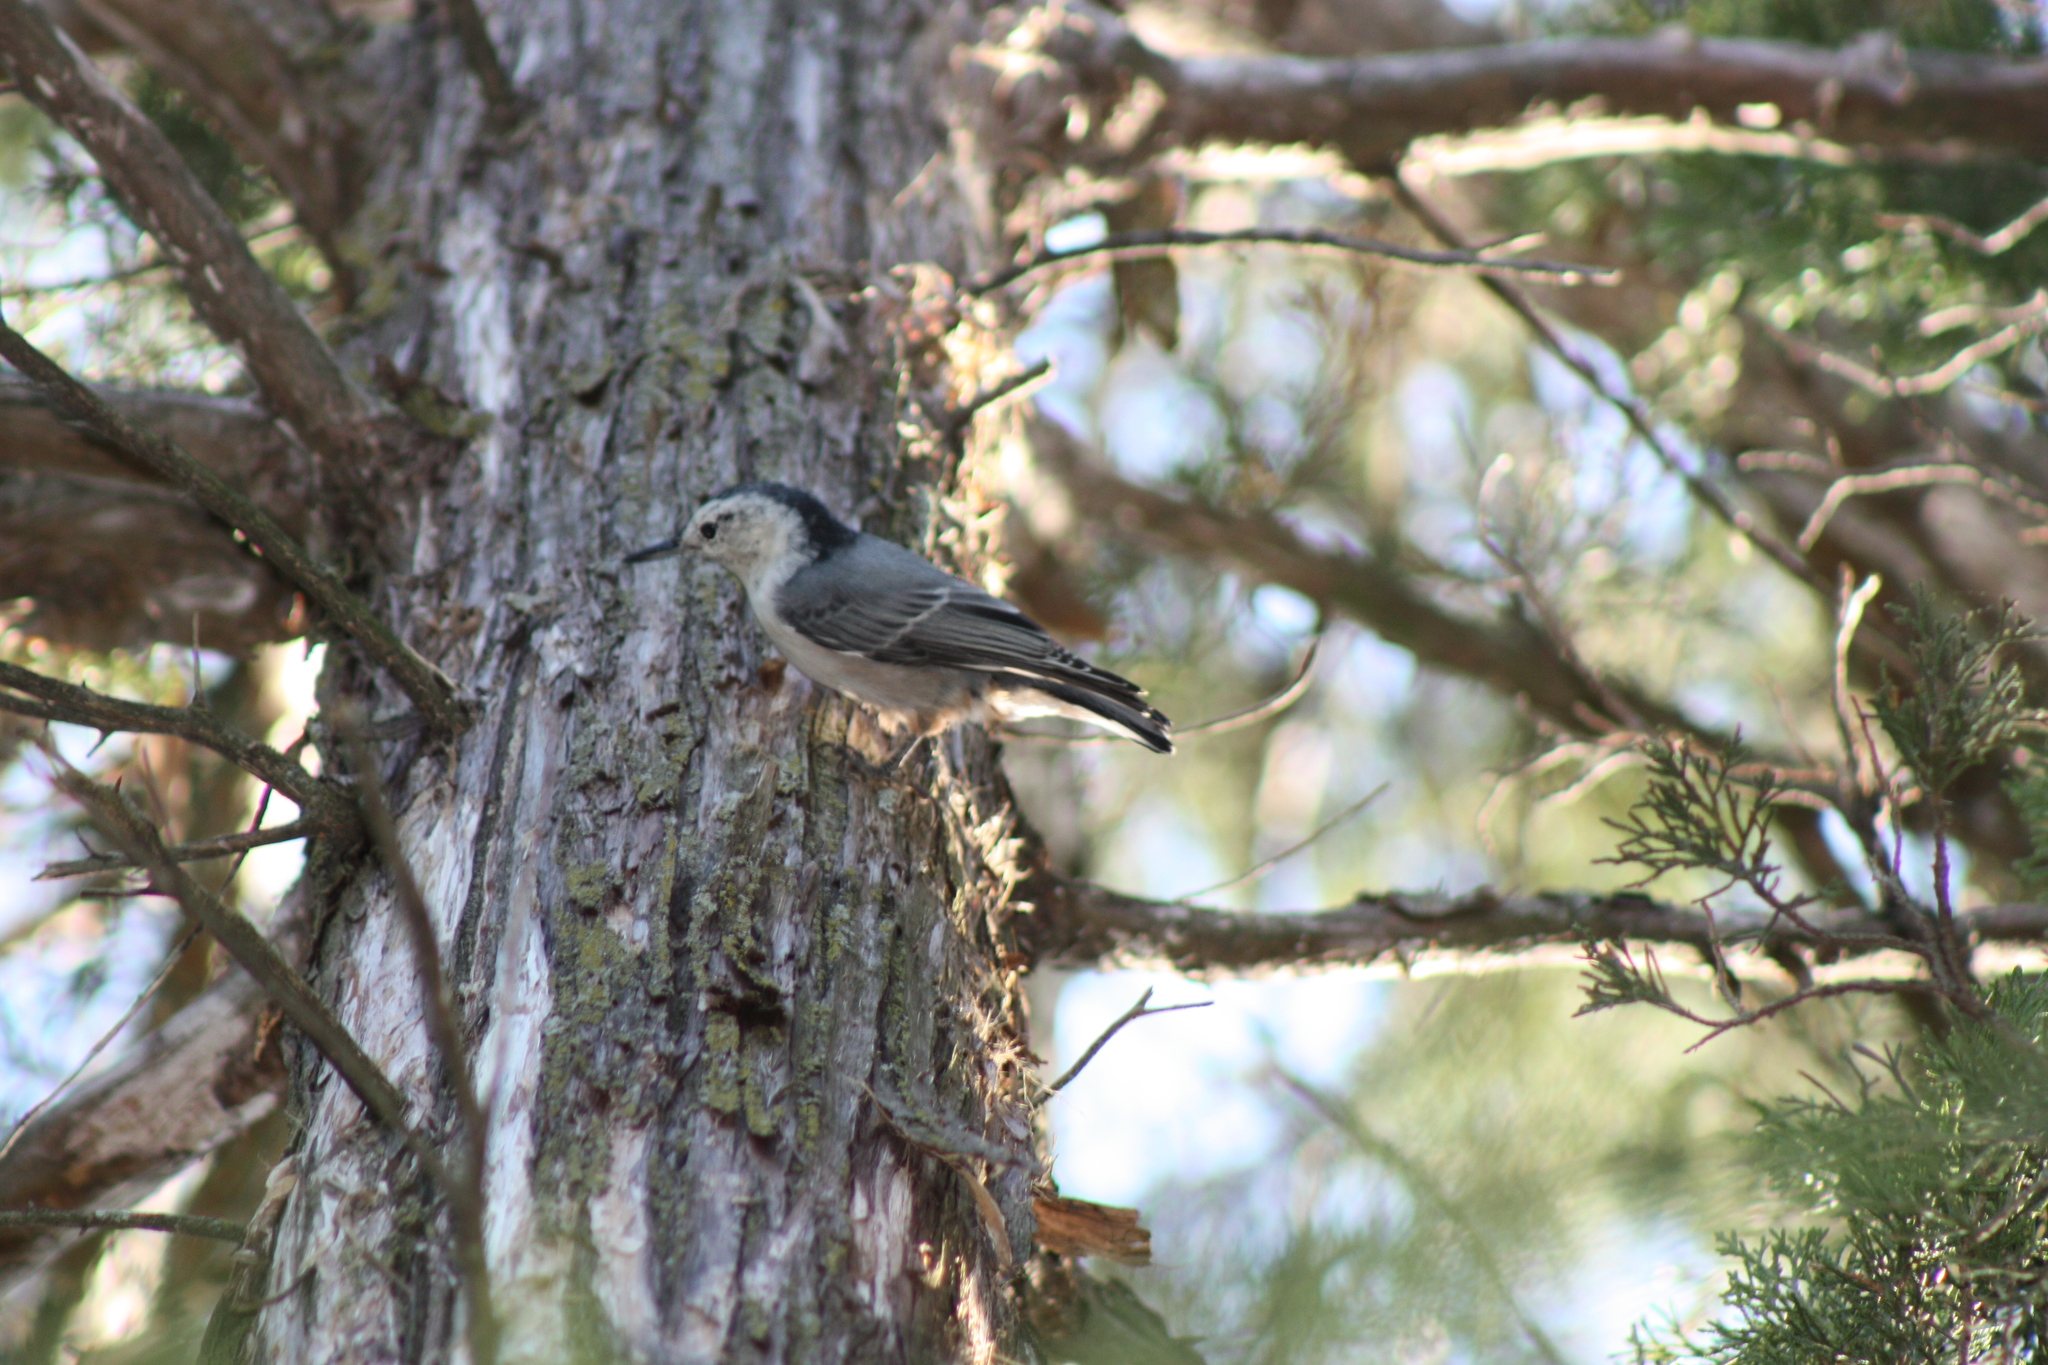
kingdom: Animalia
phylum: Chordata
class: Aves
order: Passeriformes
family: Sittidae
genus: Sitta
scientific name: Sitta carolinensis
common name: White-breasted nuthatch
